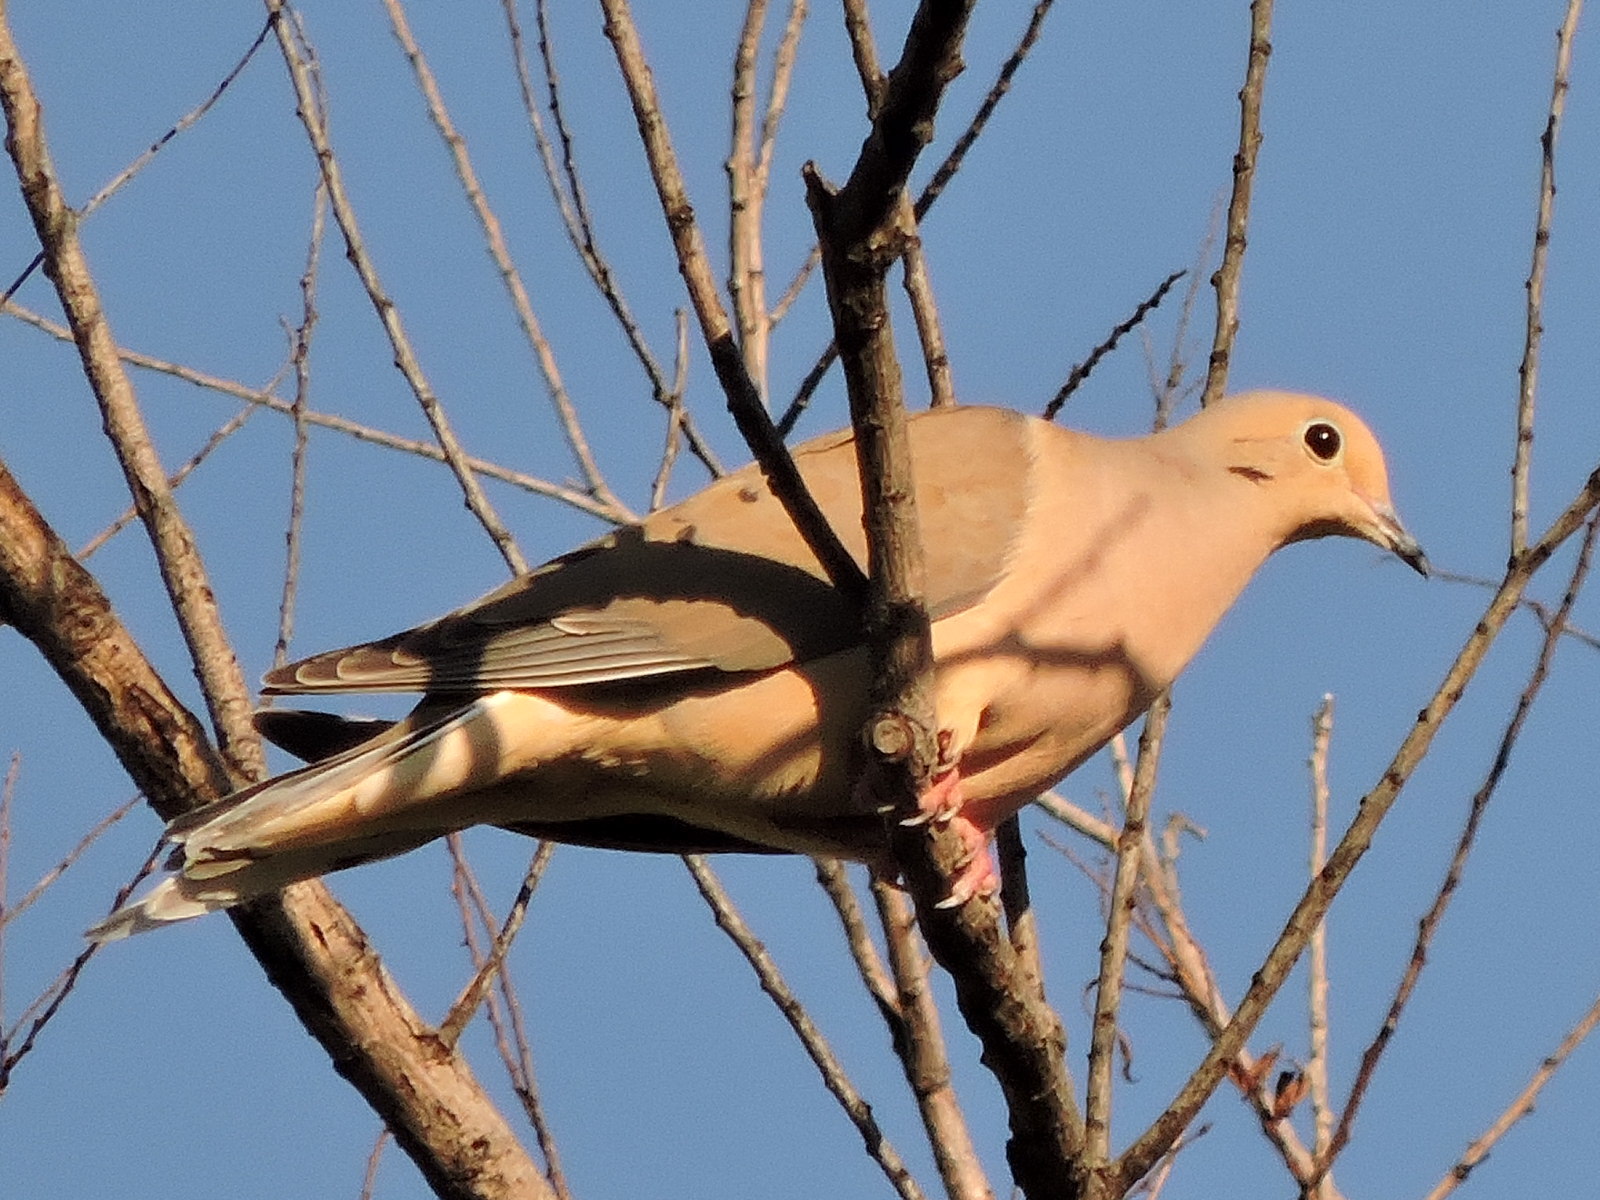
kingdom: Animalia
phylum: Chordata
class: Aves
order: Columbiformes
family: Columbidae
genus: Zenaida
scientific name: Zenaida macroura
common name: Mourning dove
